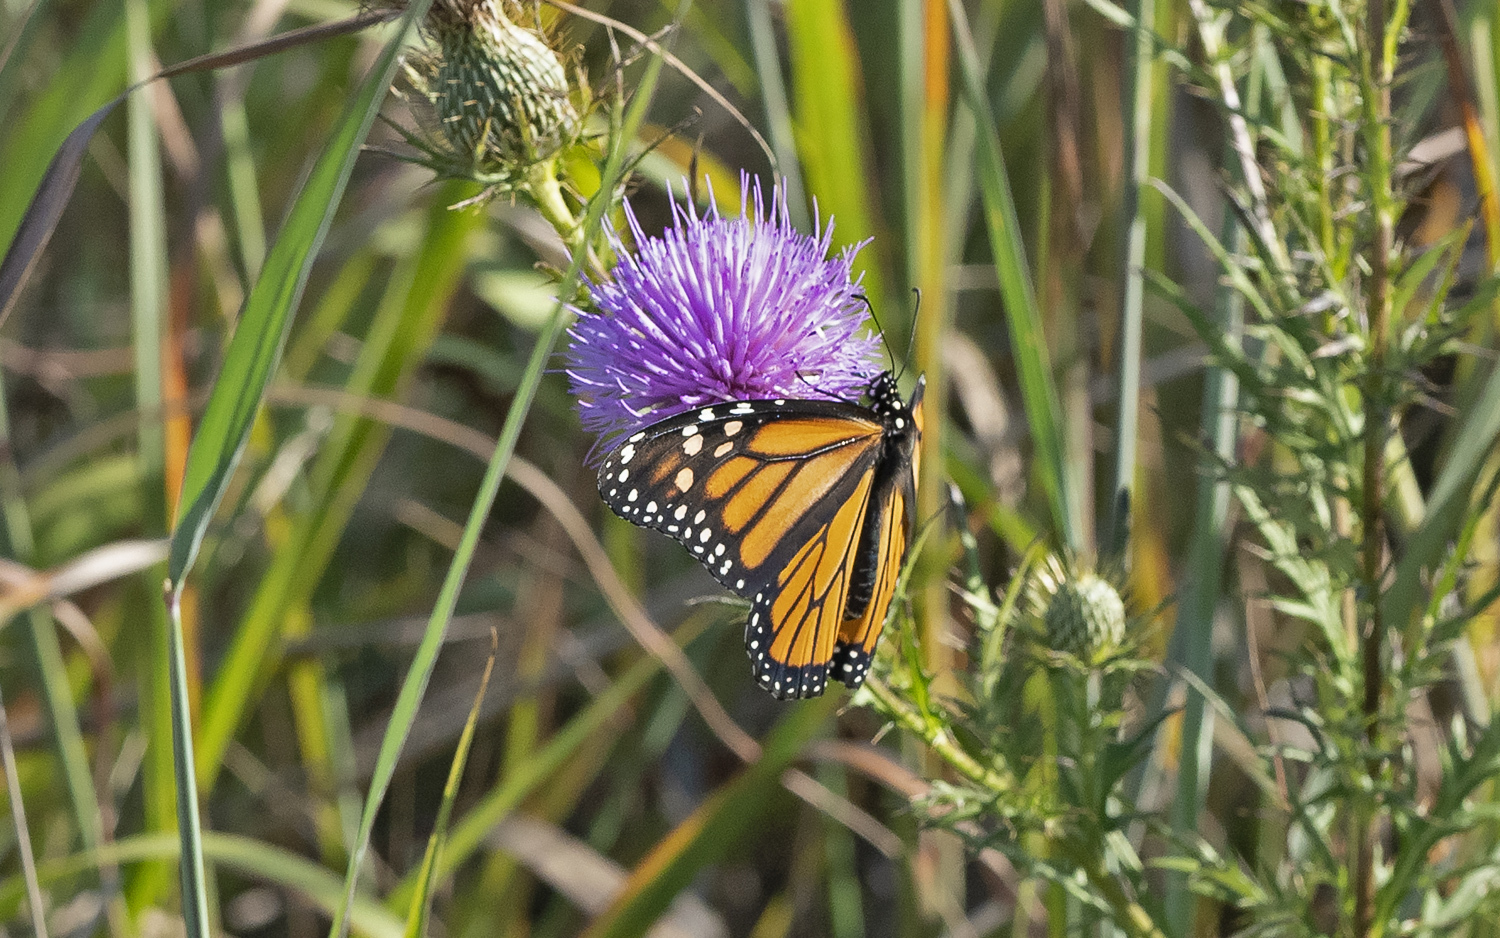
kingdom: Animalia
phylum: Arthropoda
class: Insecta
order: Lepidoptera
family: Nymphalidae
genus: Danaus
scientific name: Danaus plexippus
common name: Monarch
